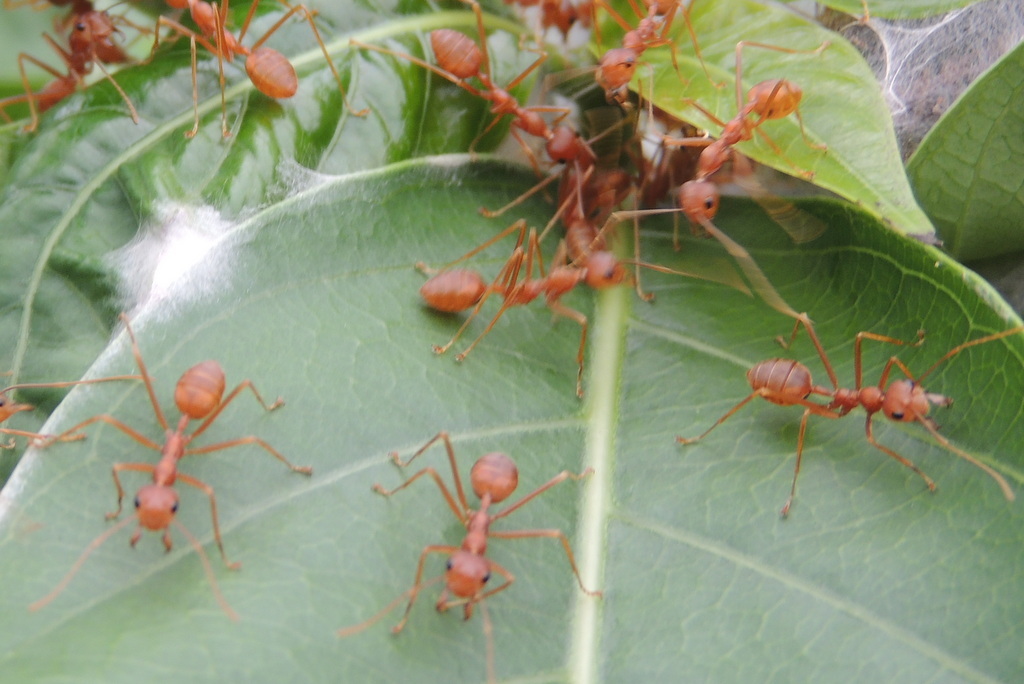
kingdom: Animalia
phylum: Arthropoda
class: Insecta
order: Hymenoptera
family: Formicidae
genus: Oecophylla
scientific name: Oecophylla smaragdina
